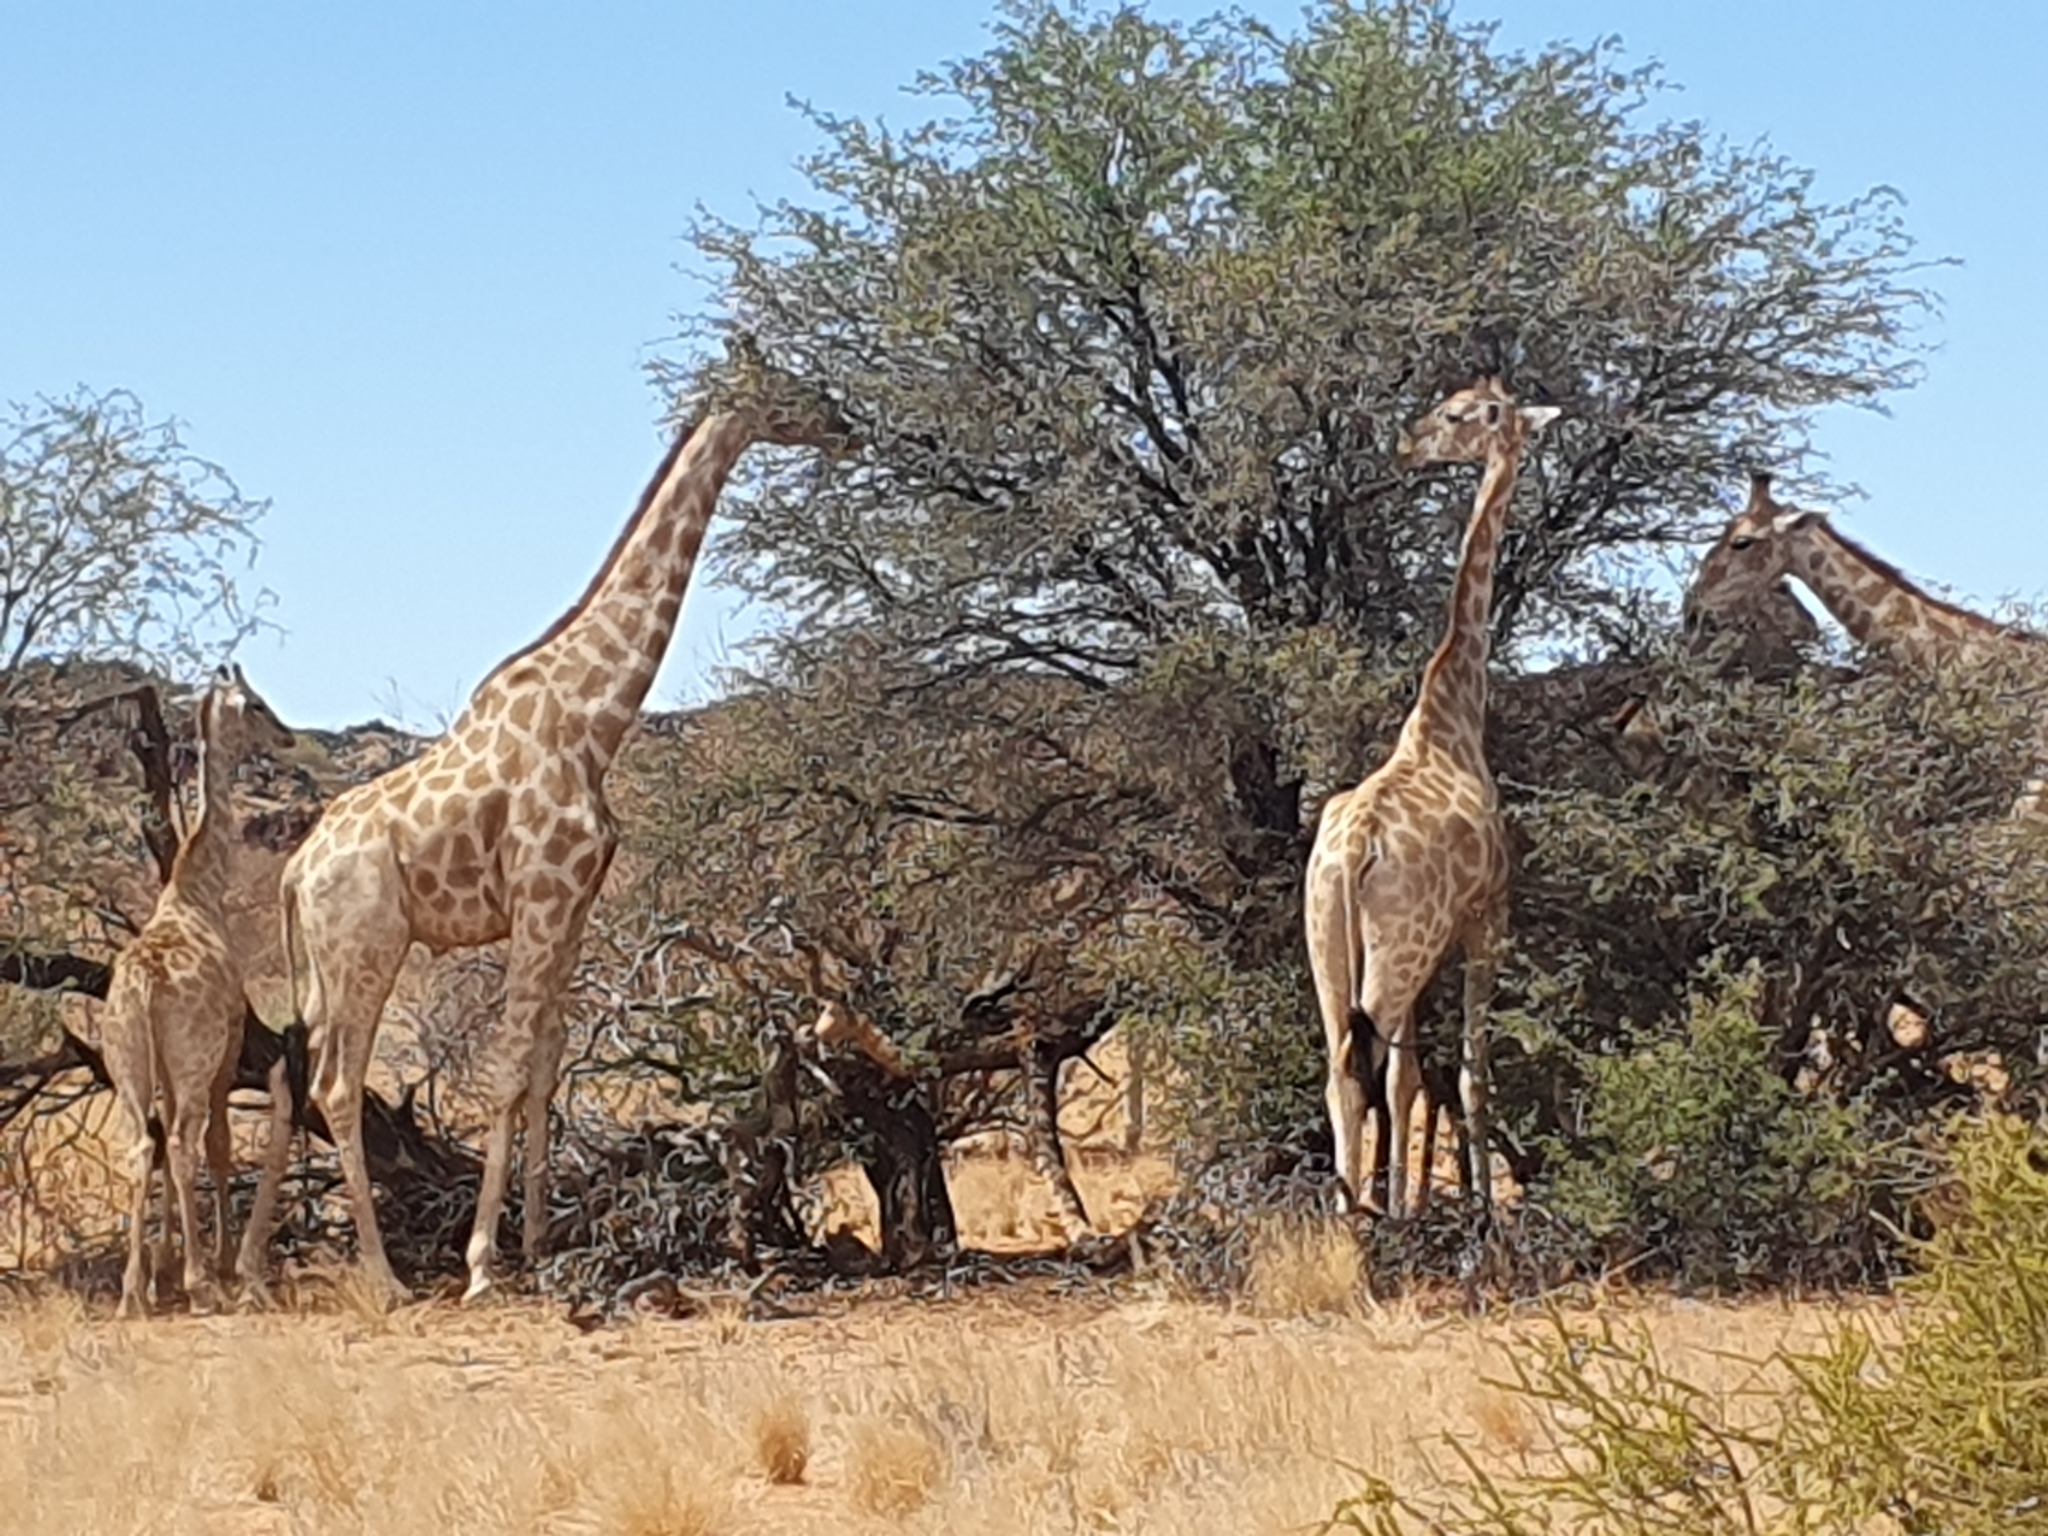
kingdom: Animalia
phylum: Chordata
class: Mammalia
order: Artiodactyla
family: Giraffidae
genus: Giraffa
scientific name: Giraffa giraffa
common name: Southern giraffe
